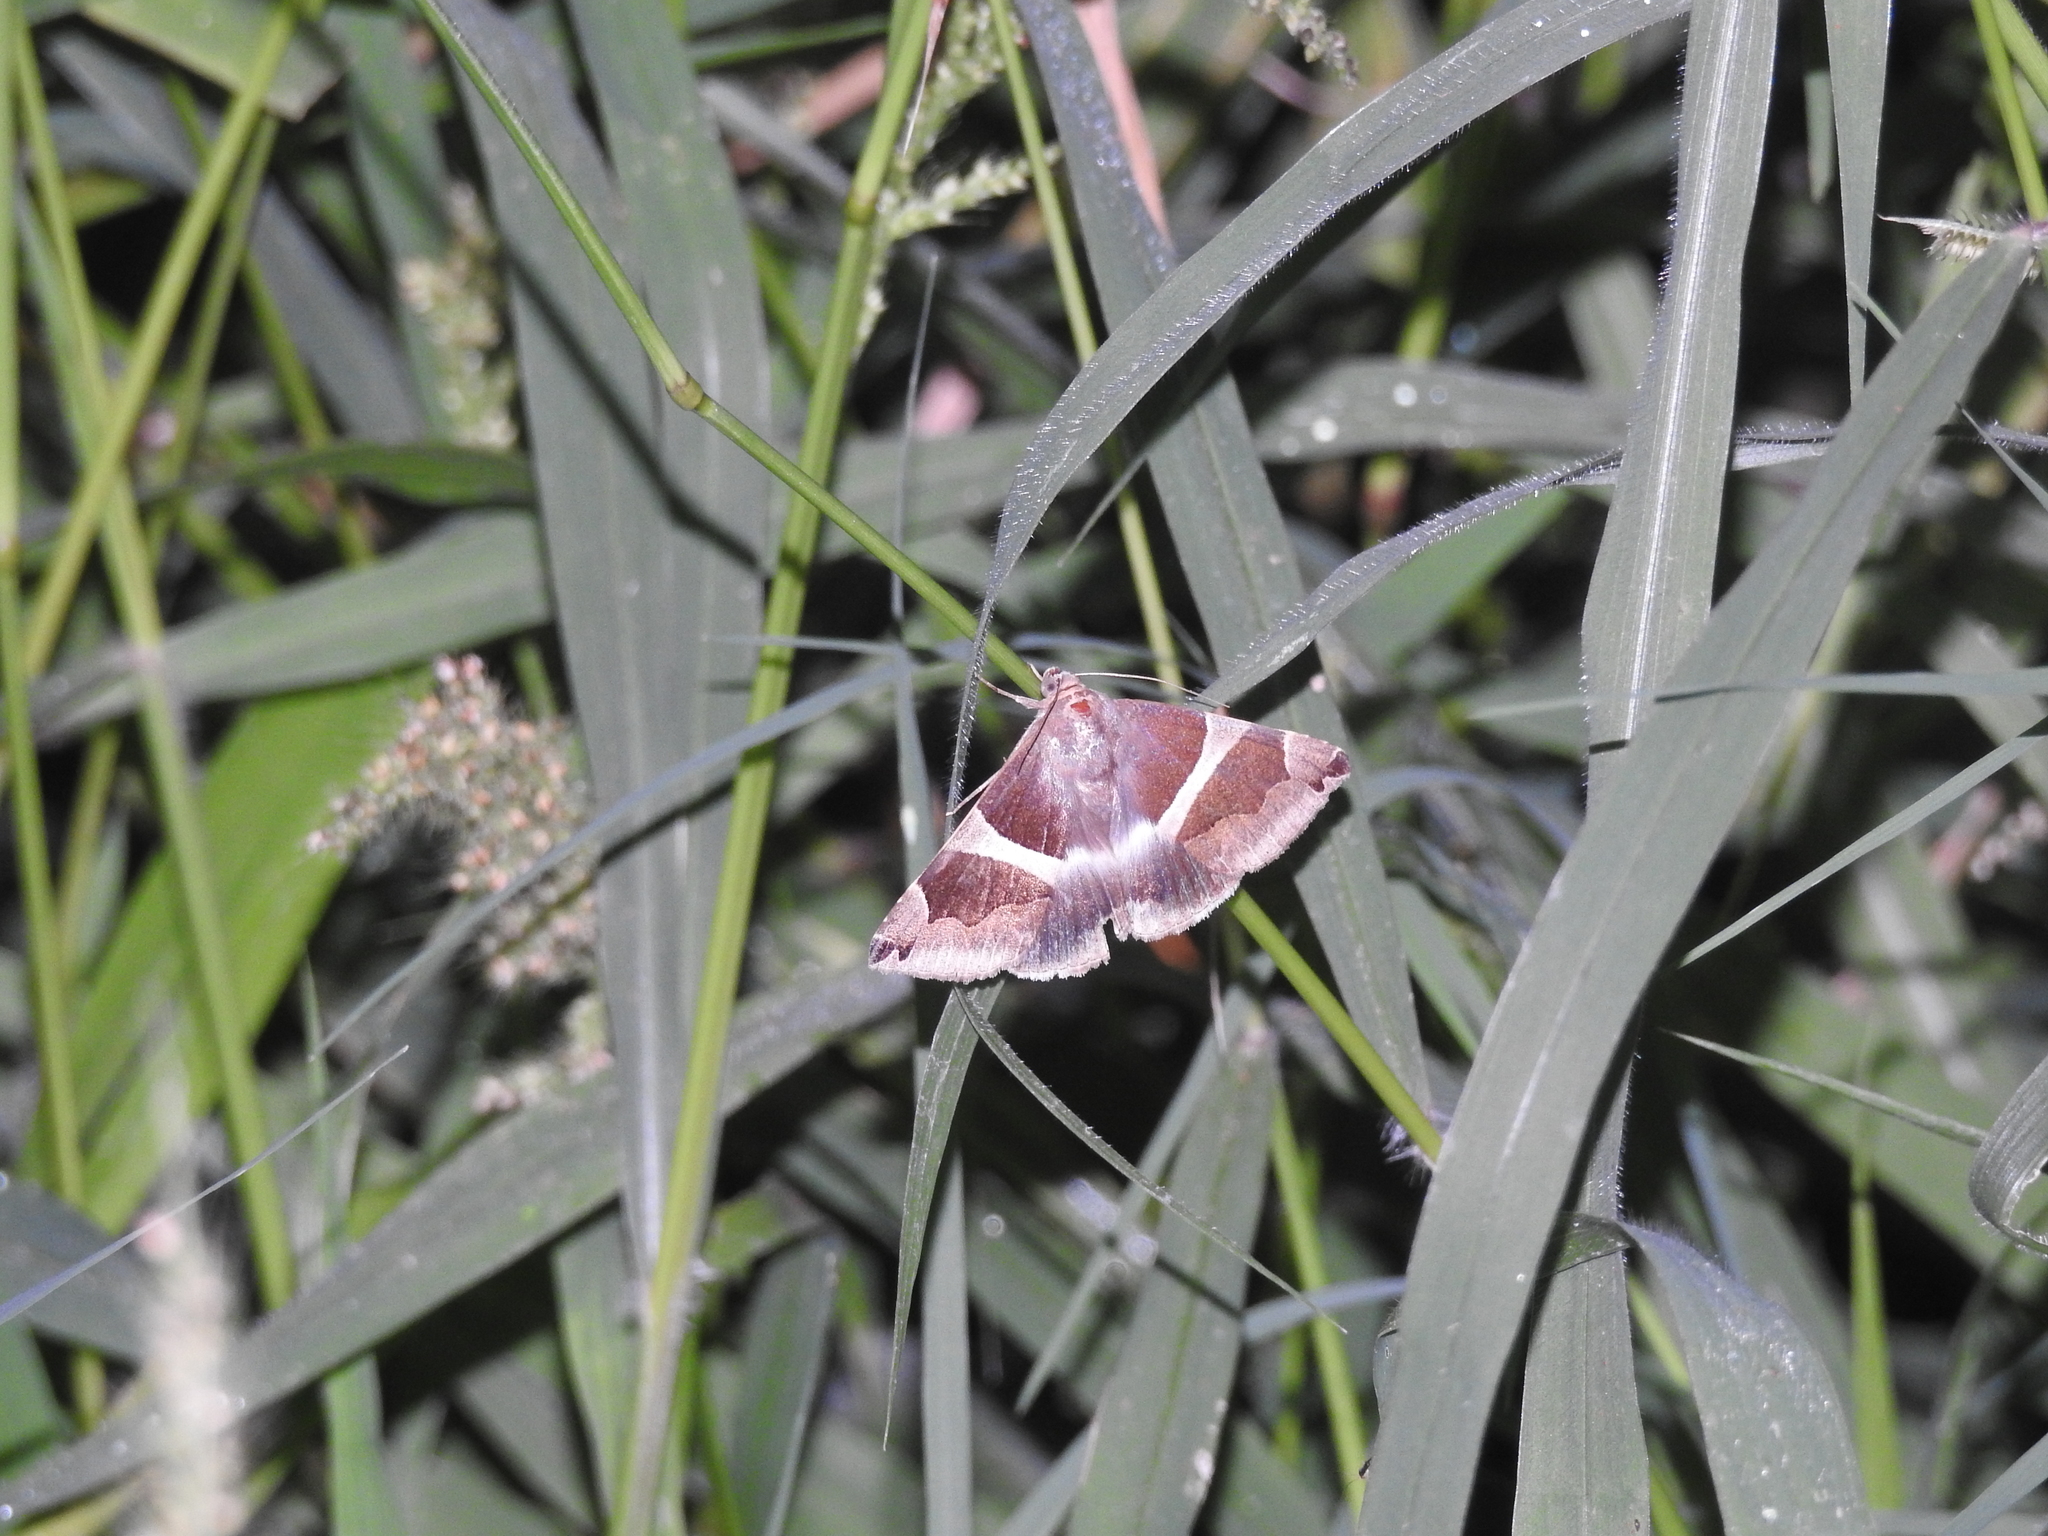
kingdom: Animalia
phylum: Arthropoda
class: Insecta
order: Lepidoptera
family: Erebidae
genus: Dysgonia
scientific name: Dysgonia algira
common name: Passenger
